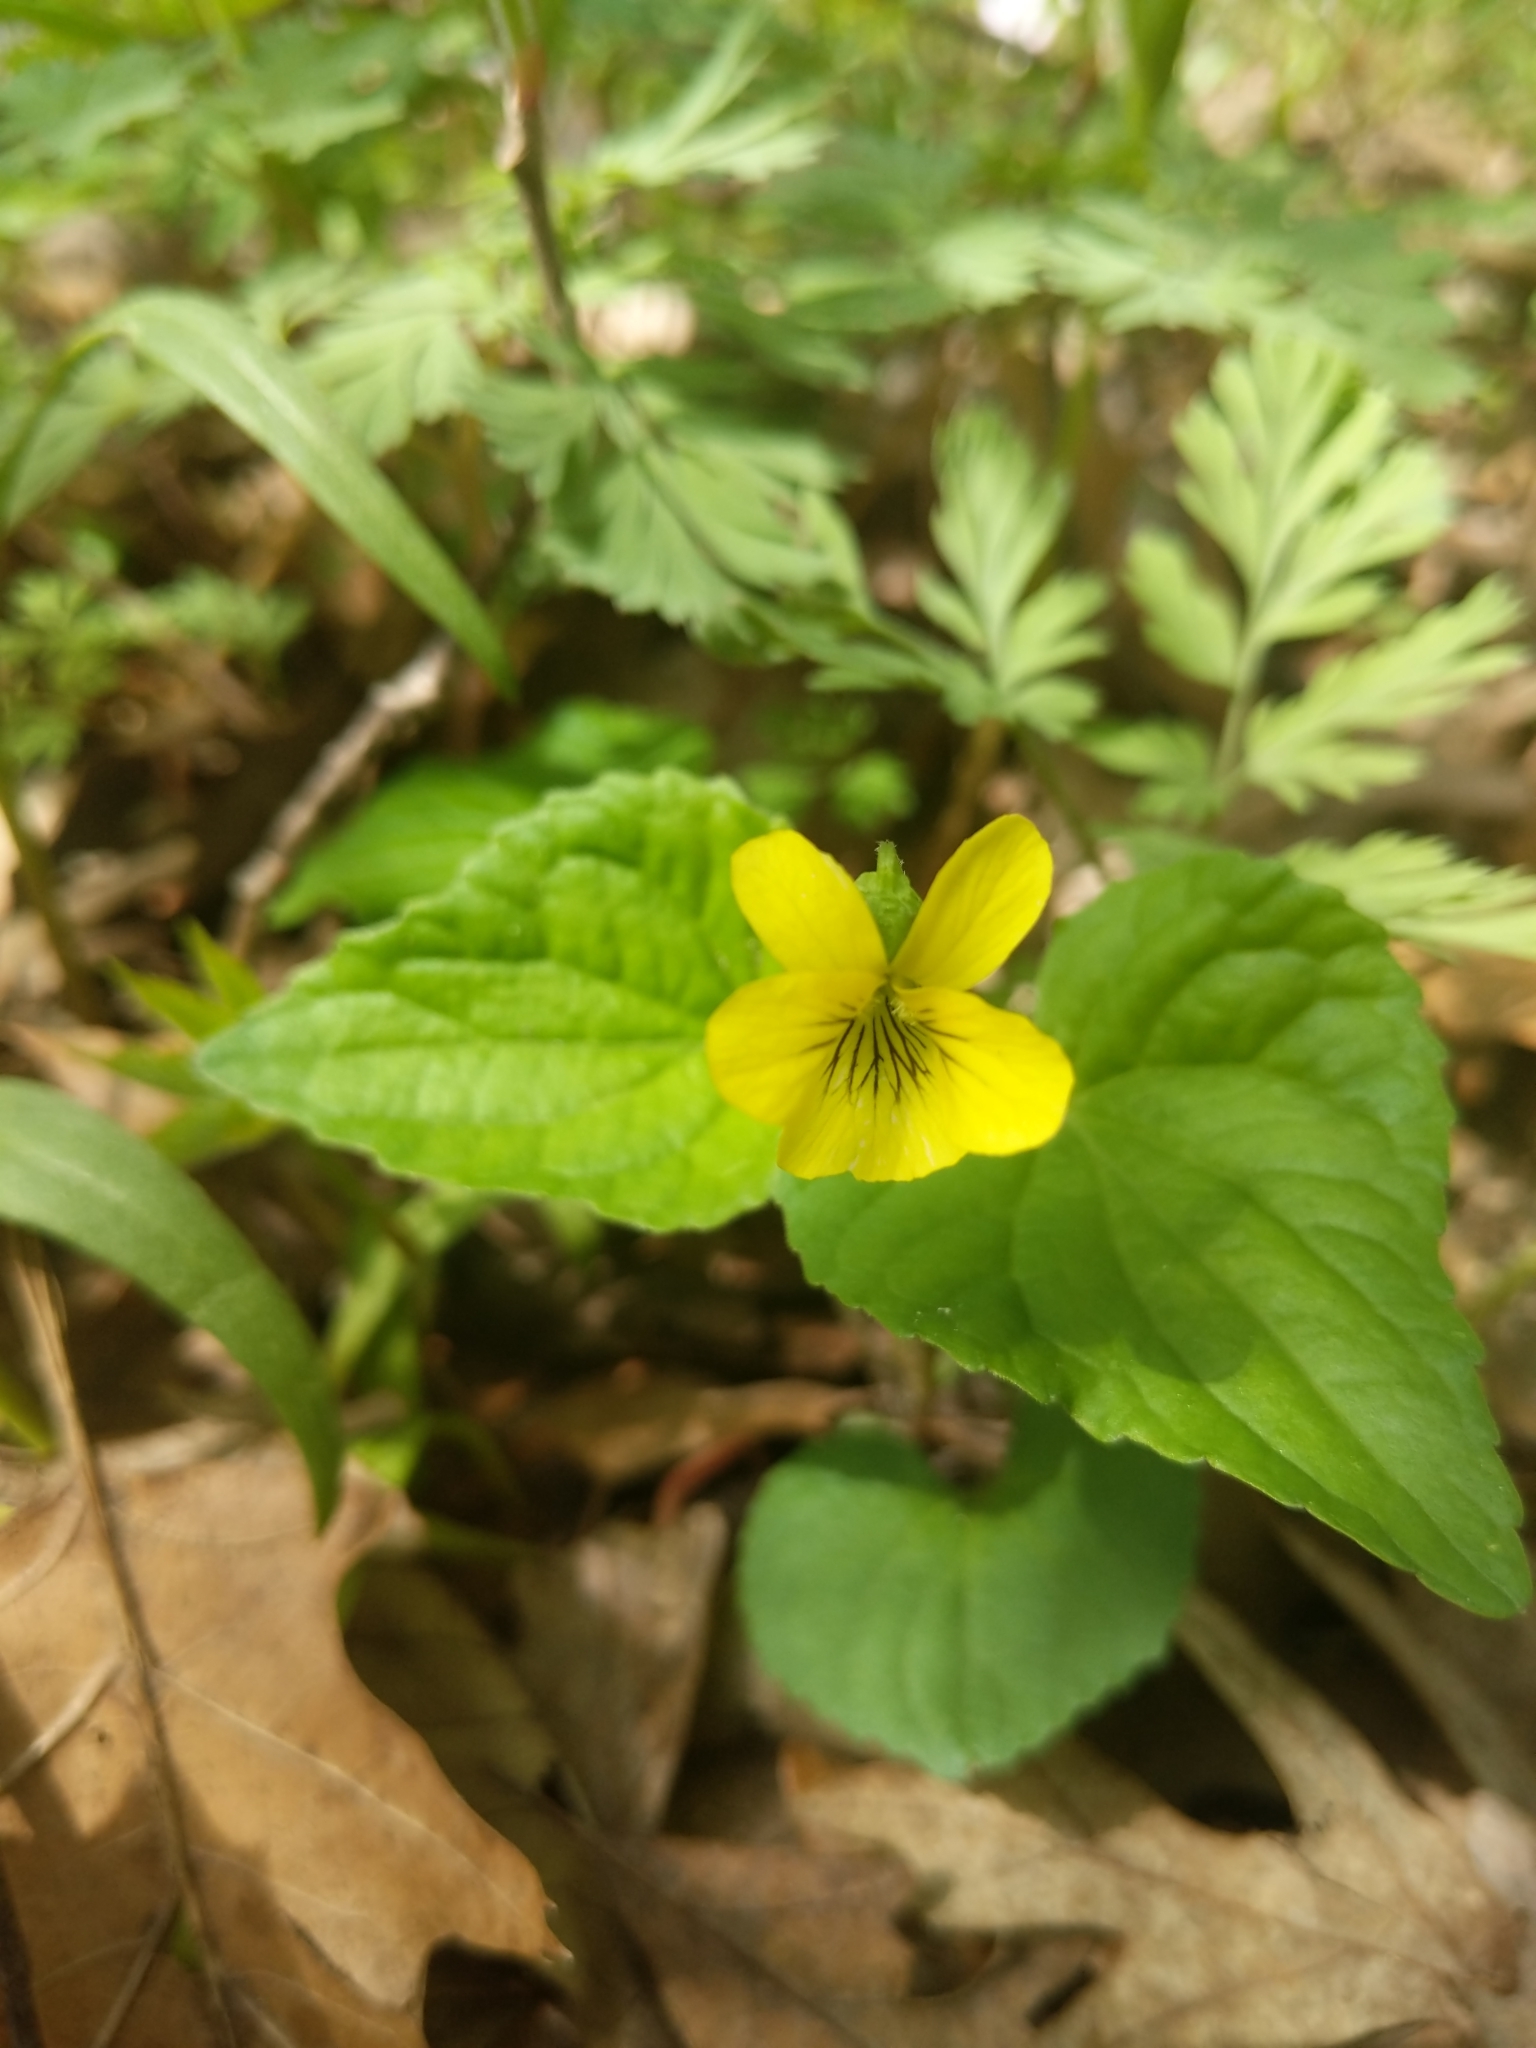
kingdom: Plantae
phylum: Tracheophyta
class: Magnoliopsida
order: Malpighiales
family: Violaceae
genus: Viola
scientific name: Viola eriocarpa
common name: Smooth yellow violet
